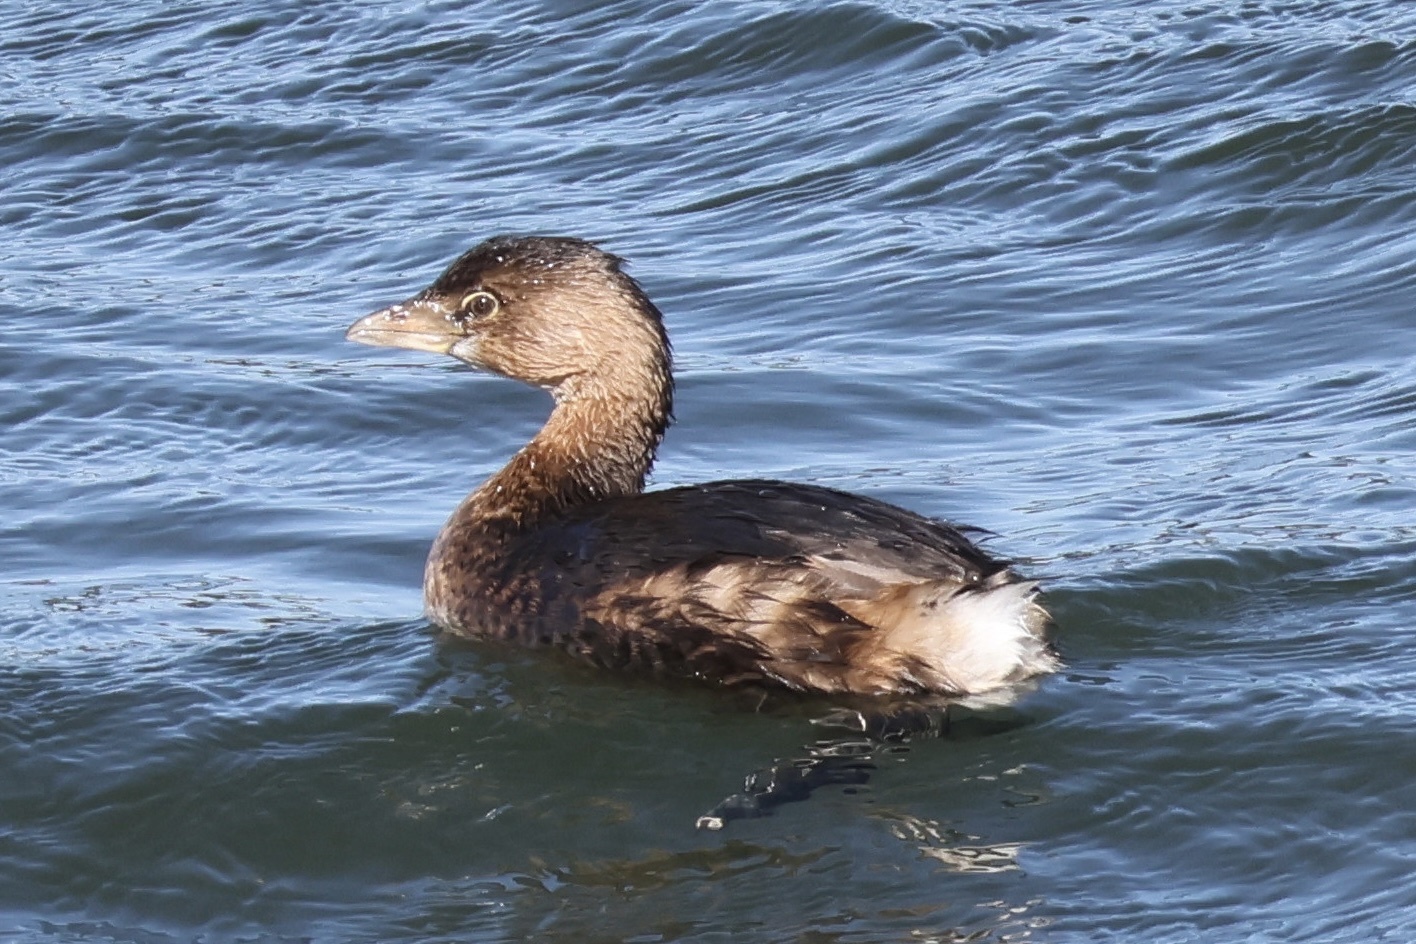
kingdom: Animalia
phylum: Chordata
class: Aves
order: Podicipediformes
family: Podicipedidae
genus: Podilymbus
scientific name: Podilymbus podiceps
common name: Pied-billed grebe
